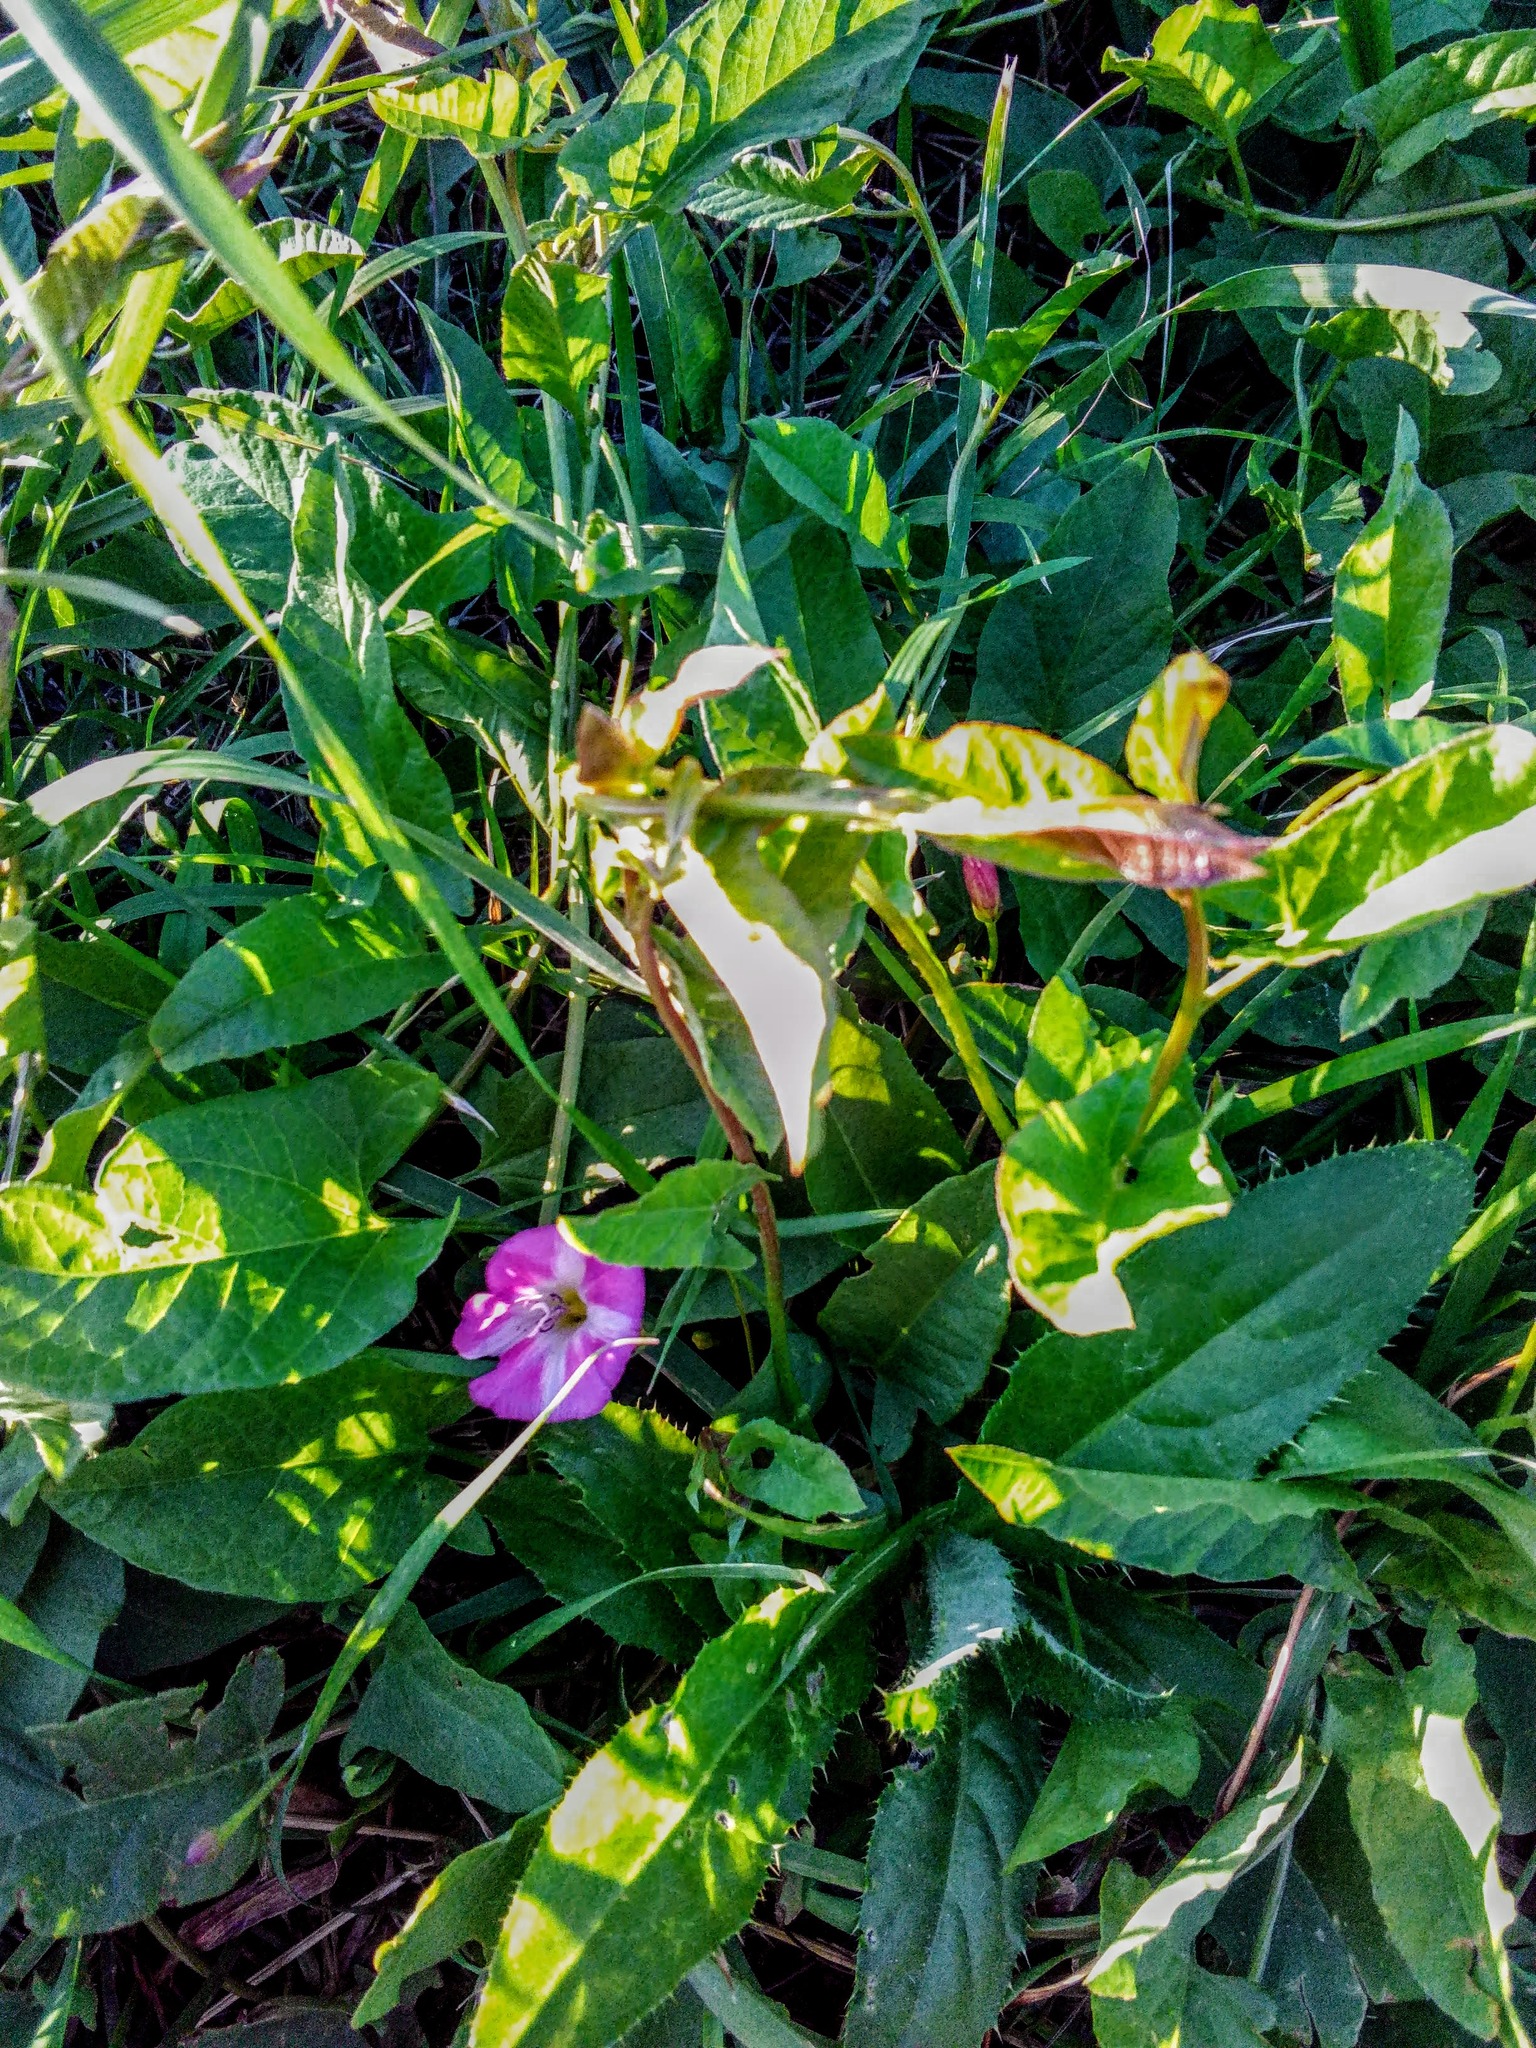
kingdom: Plantae
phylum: Tracheophyta
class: Magnoliopsida
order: Solanales
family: Convolvulaceae
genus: Convolvulus
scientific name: Convolvulus arvensis
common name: Field bindweed
